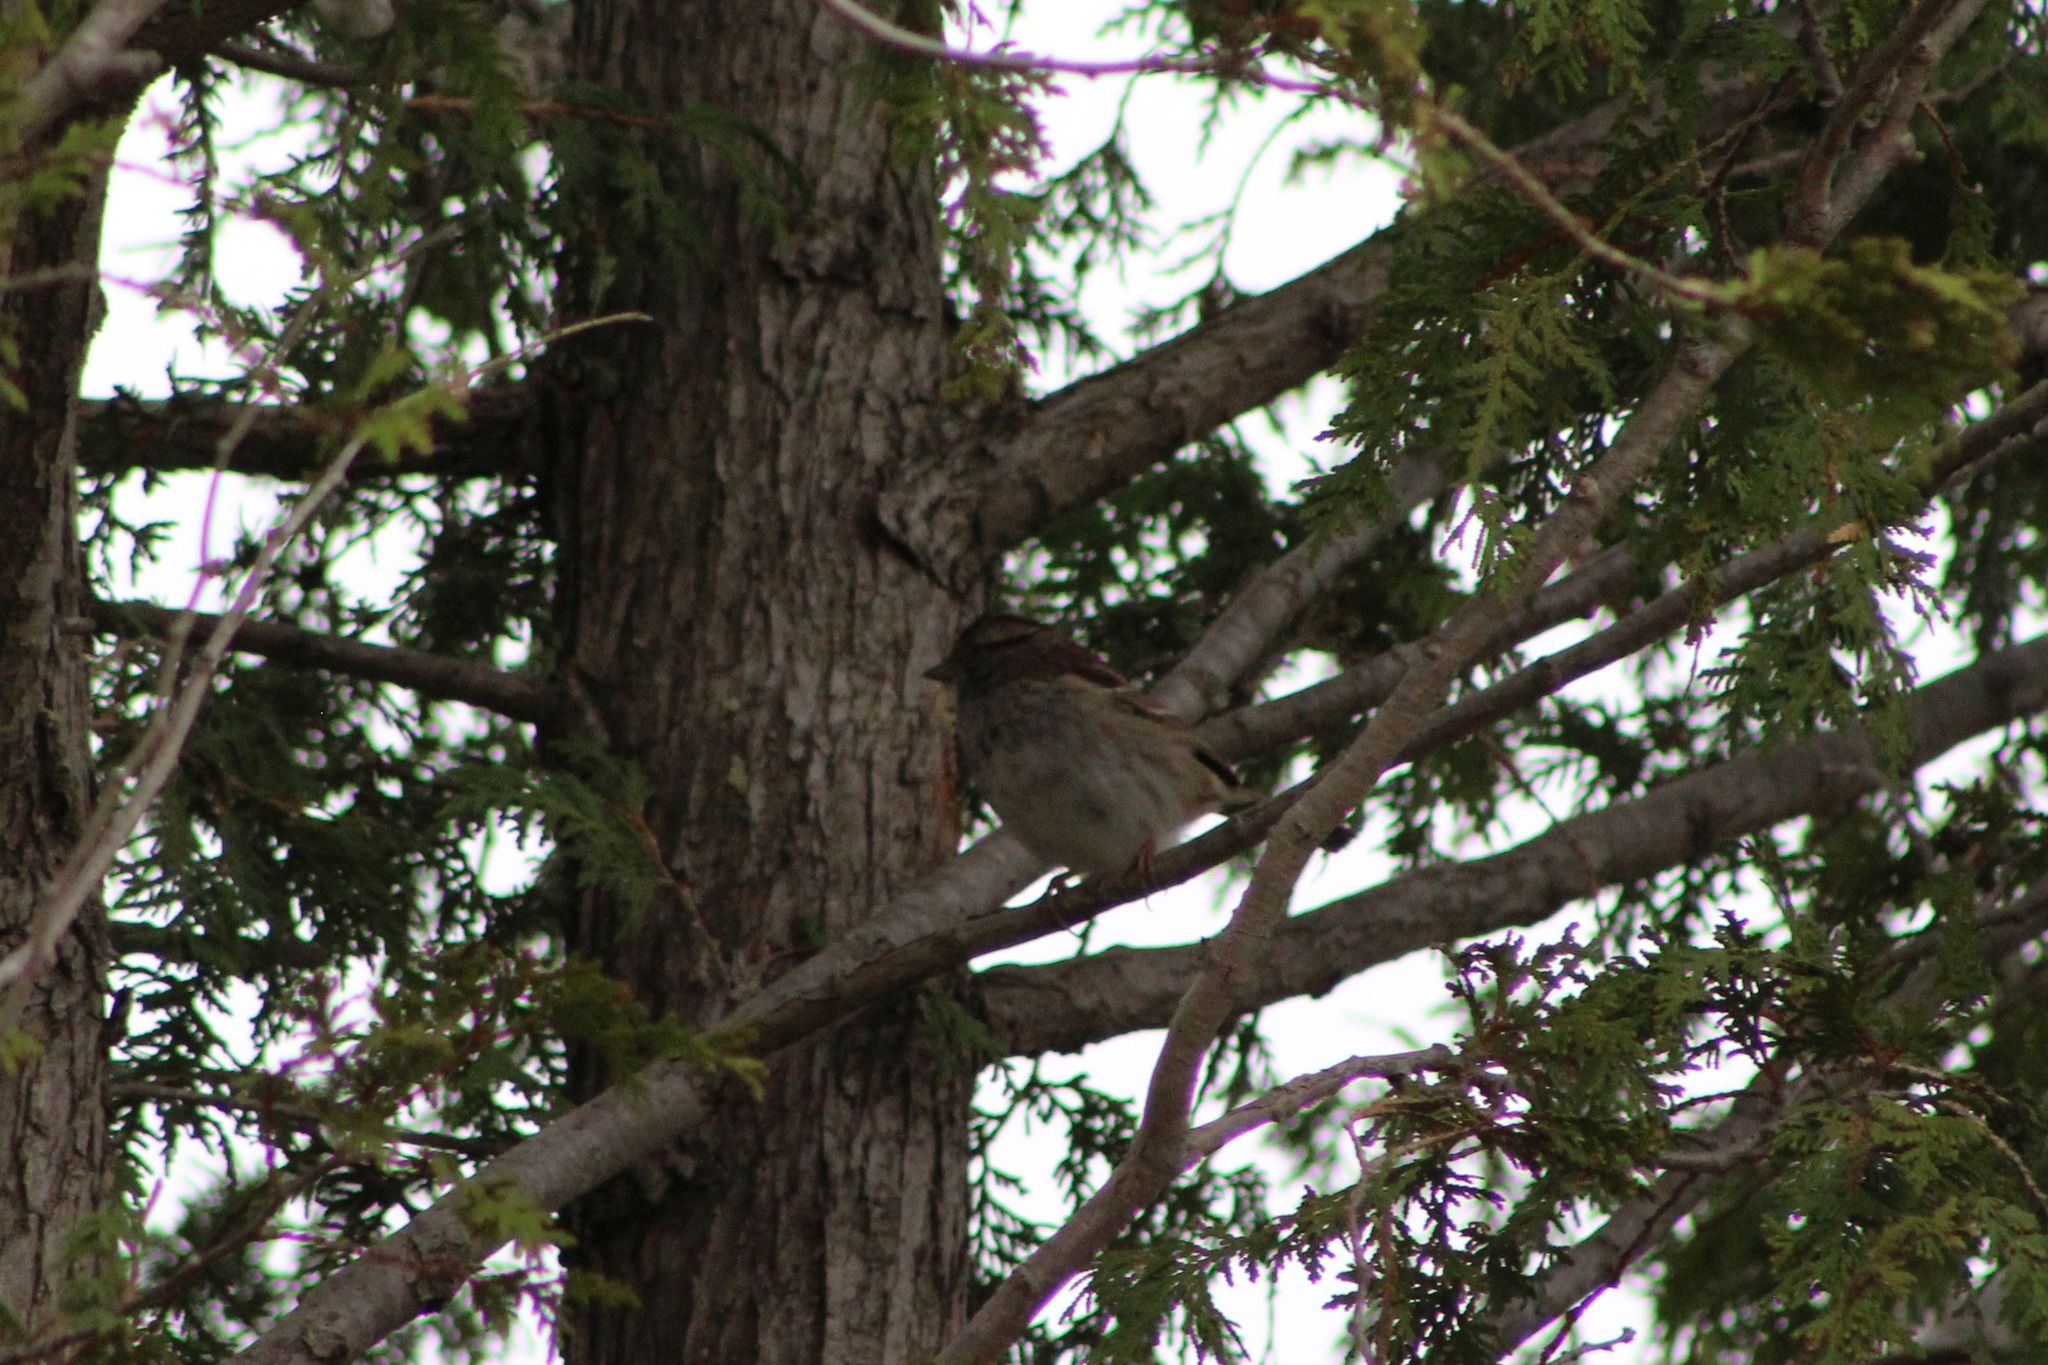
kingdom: Animalia
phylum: Chordata
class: Aves
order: Passeriformes
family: Passerellidae
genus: Zonotrichia
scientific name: Zonotrichia albicollis
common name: White-throated sparrow
